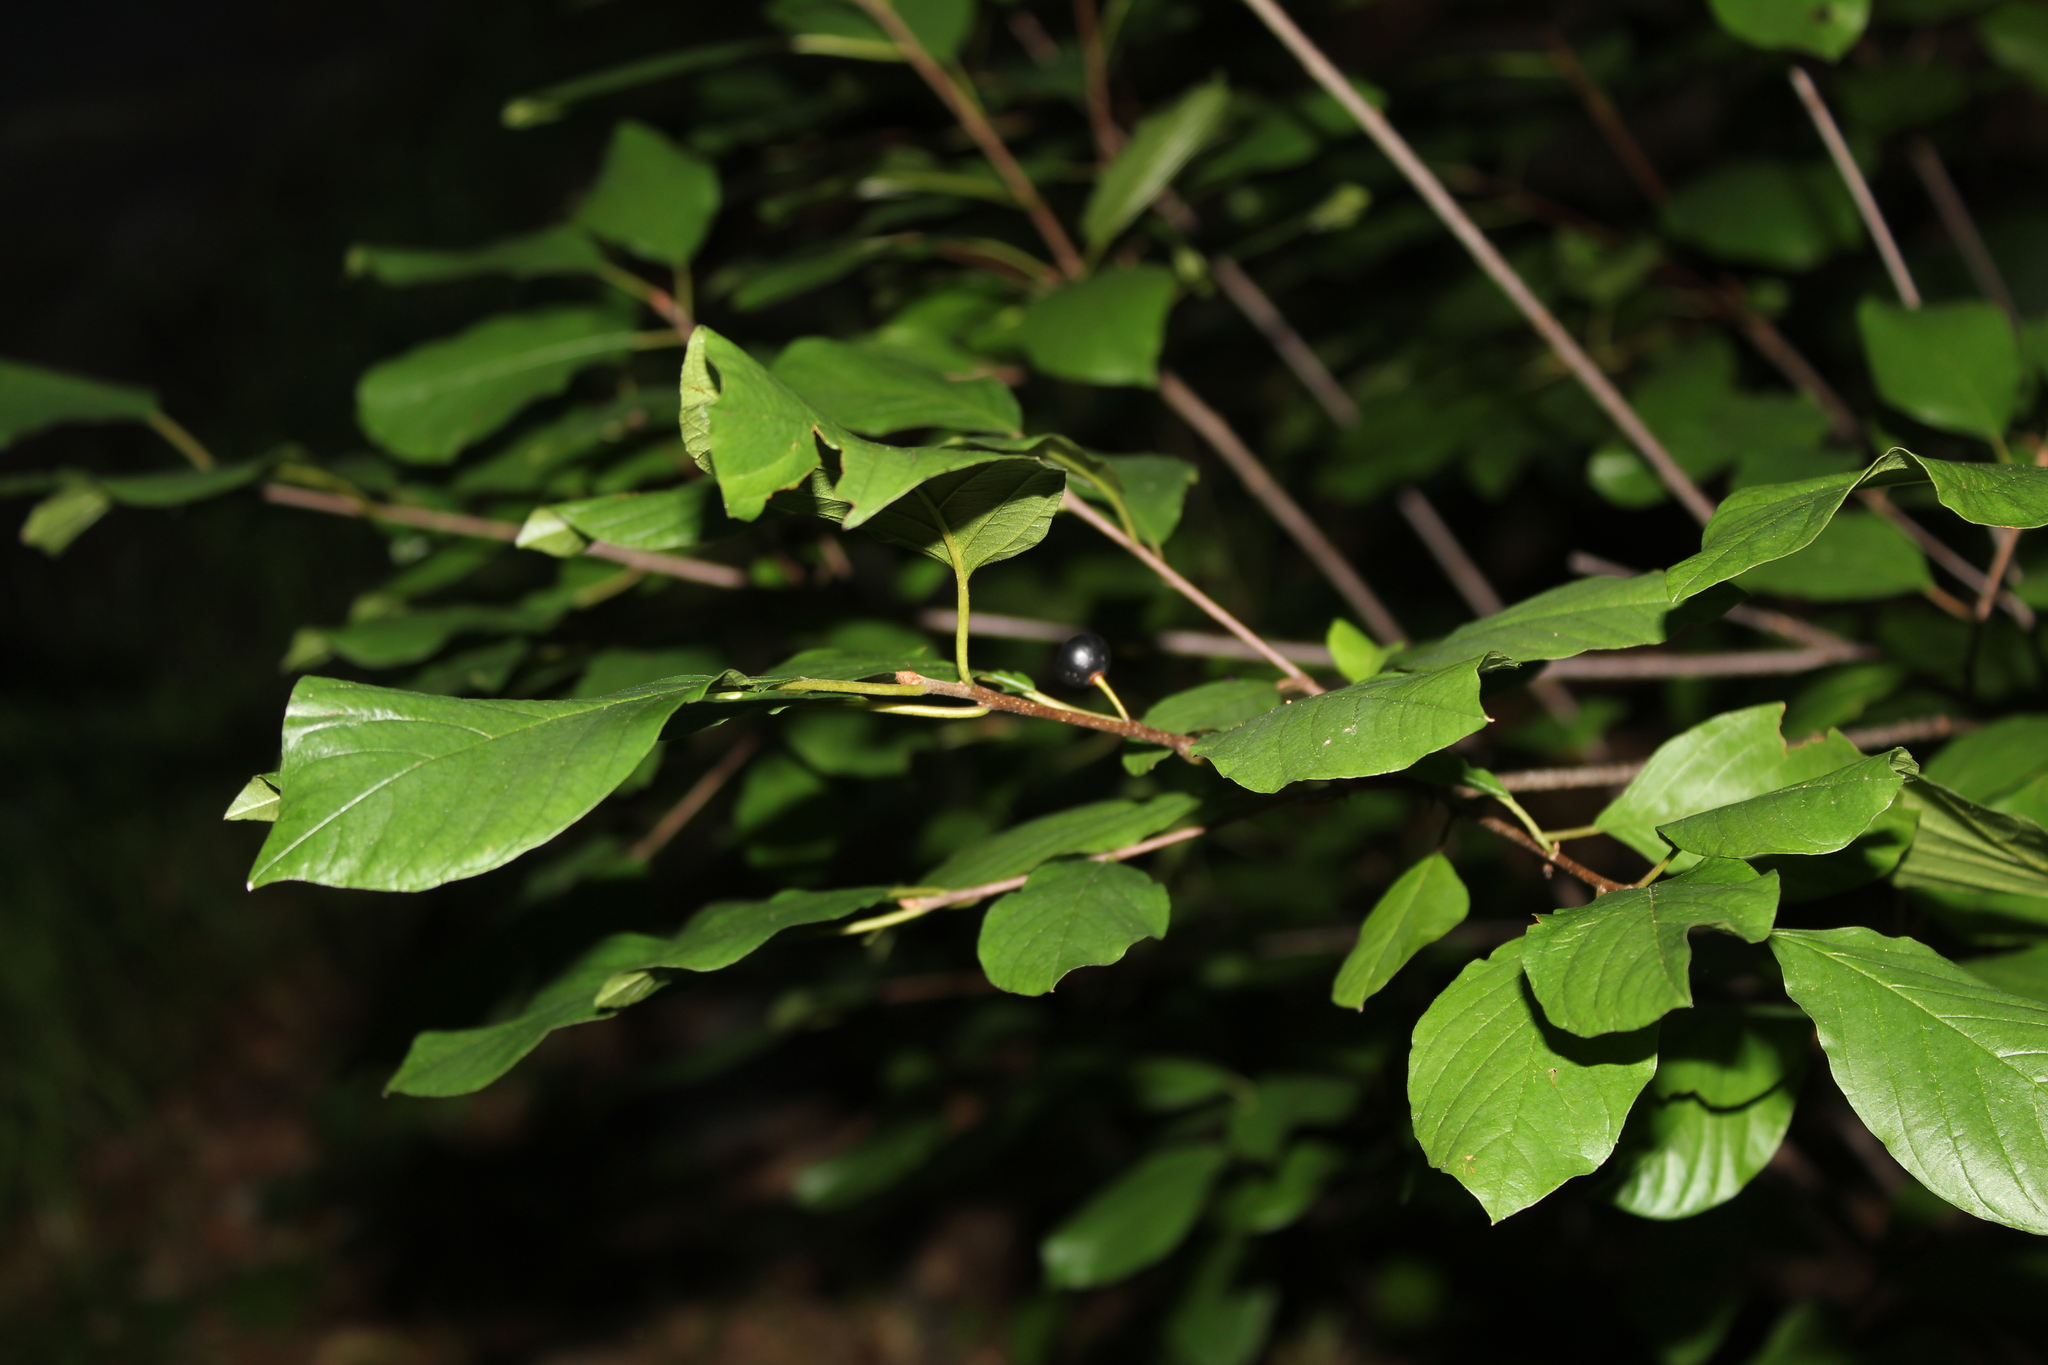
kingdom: Plantae
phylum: Tracheophyta
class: Magnoliopsida
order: Rosales
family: Rhamnaceae
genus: Frangula
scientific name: Frangula alnus
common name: Alder buckthorn
